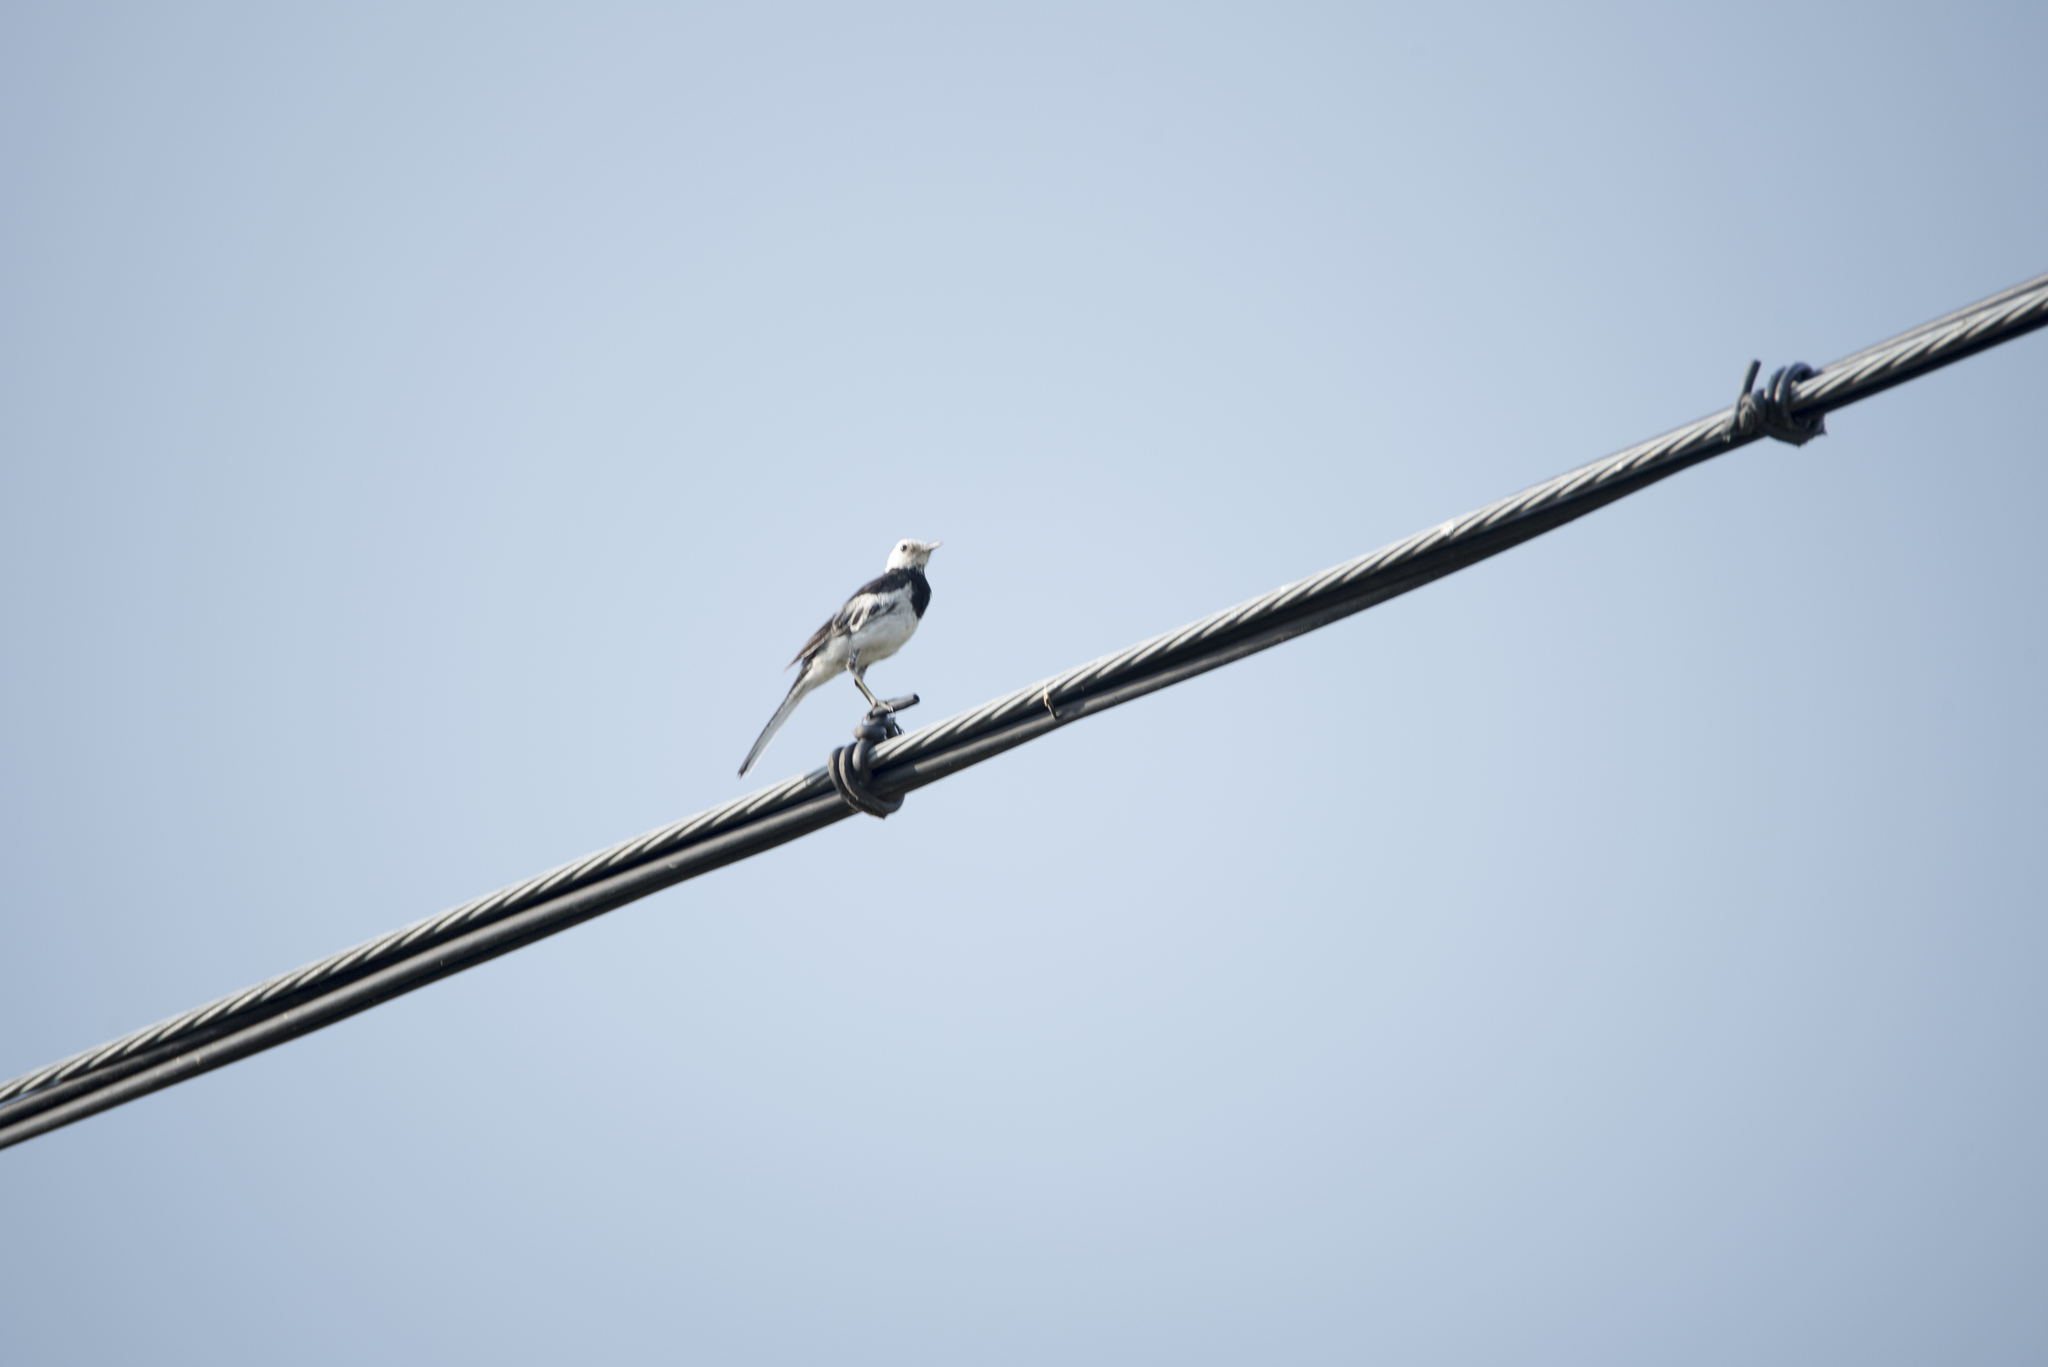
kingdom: Animalia
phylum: Chordata
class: Aves
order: Passeriformes
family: Motacillidae
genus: Motacilla
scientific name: Motacilla alba
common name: White wagtail
